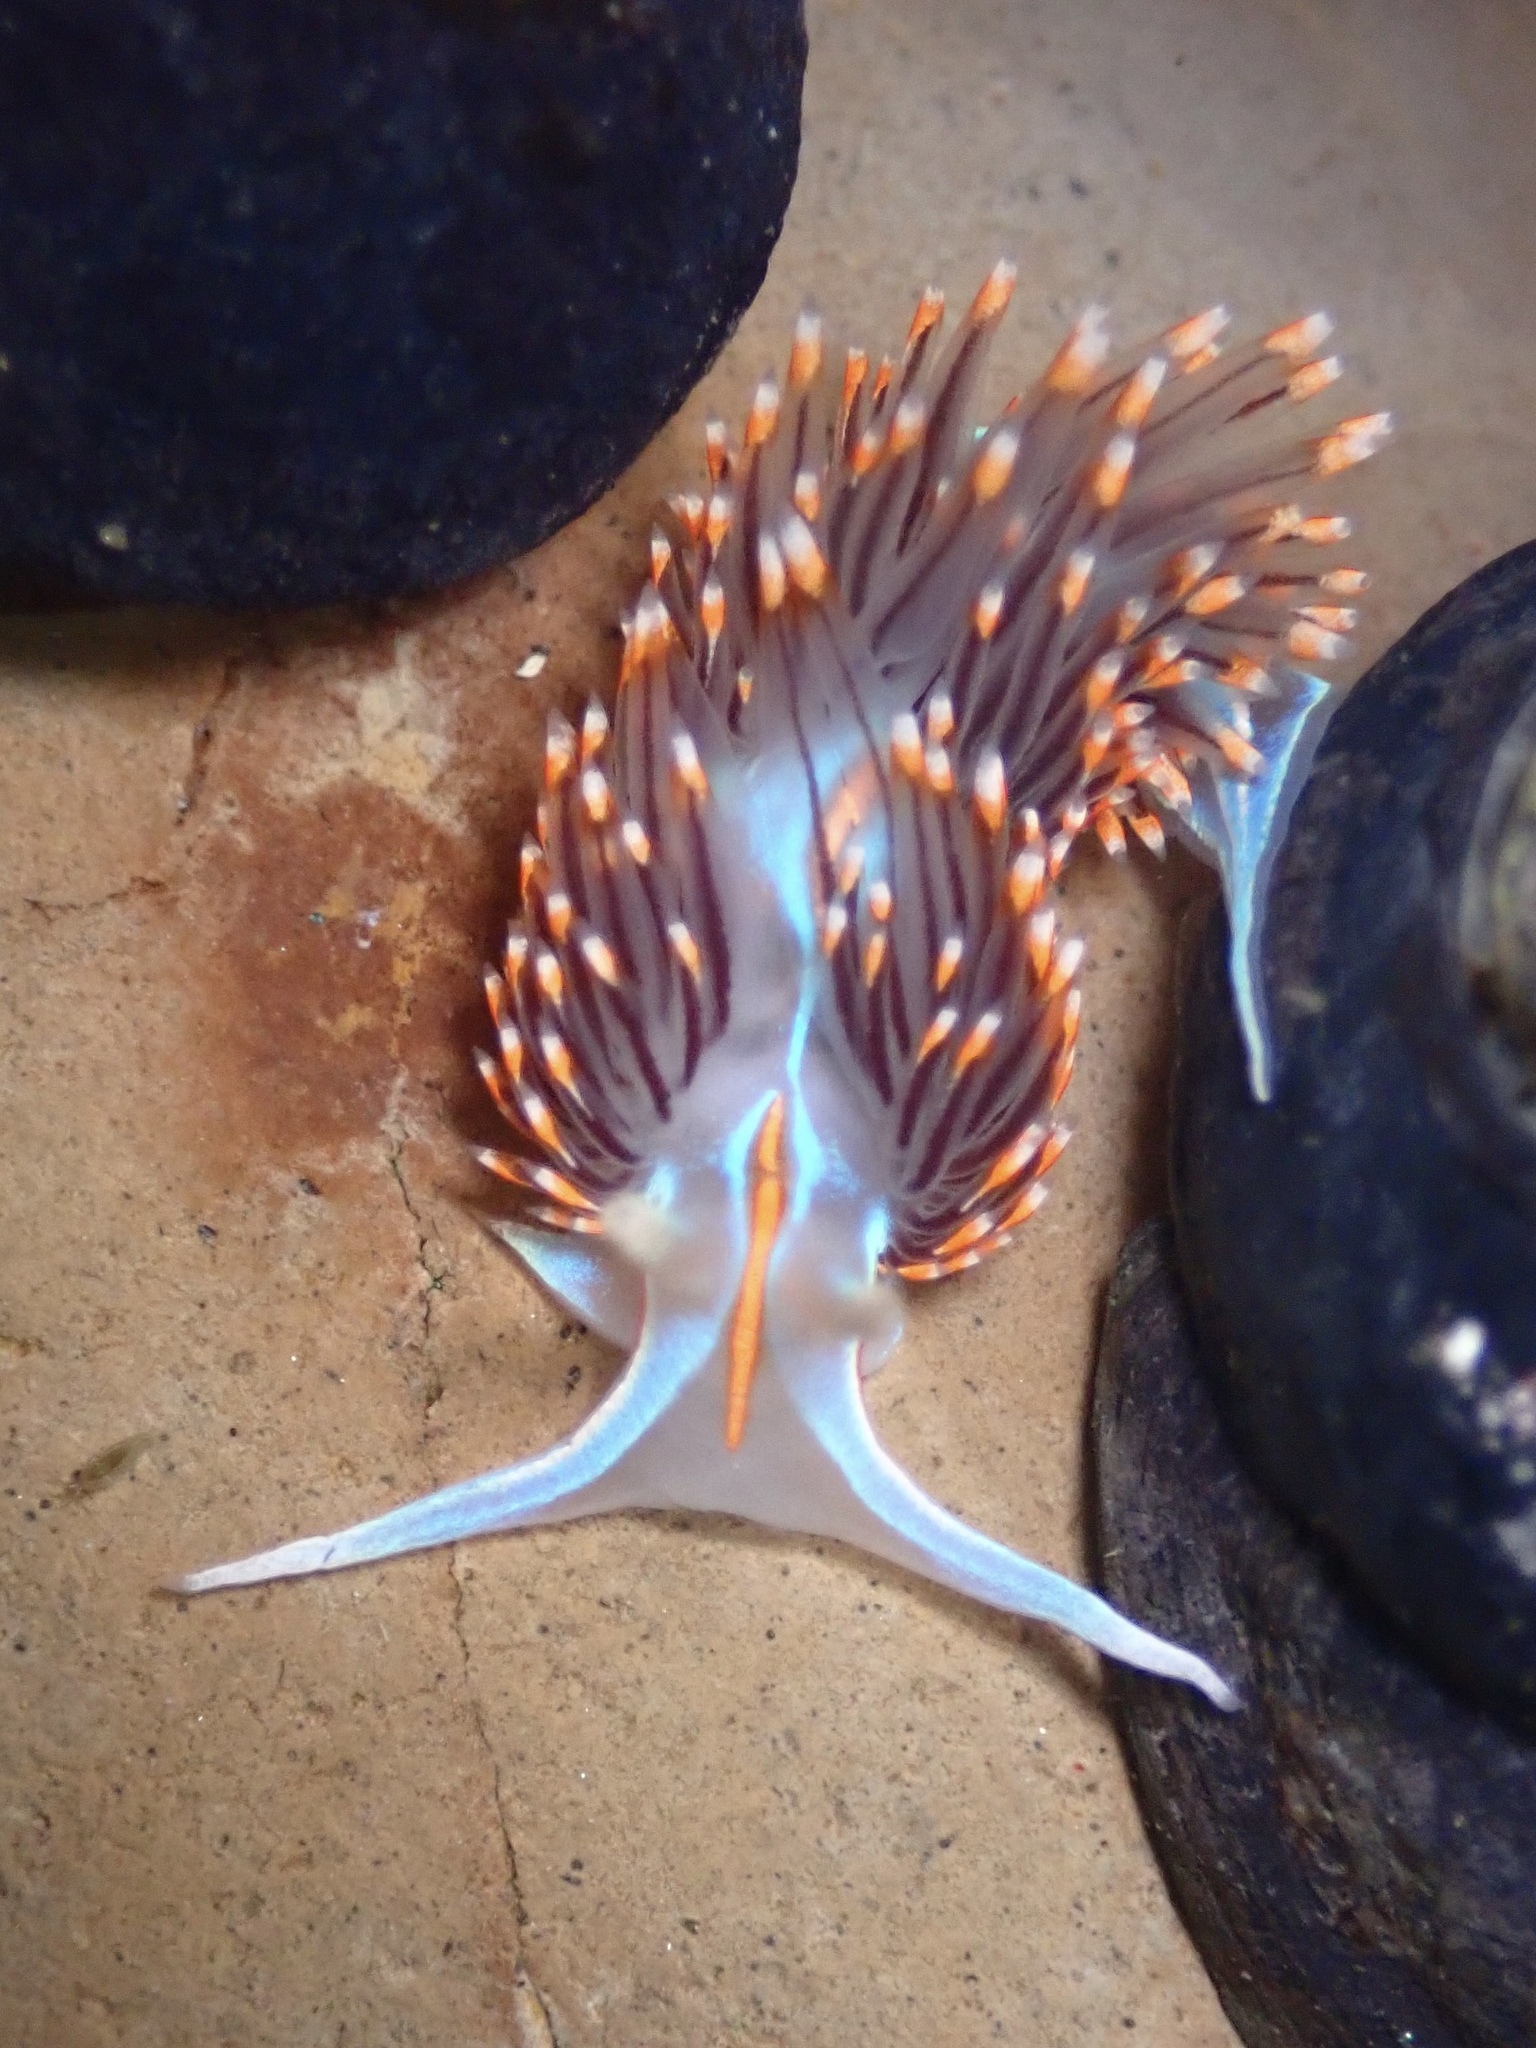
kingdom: Animalia
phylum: Mollusca
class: Gastropoda
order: Nudibranchia
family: Myrrhinidae
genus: Hermissenda
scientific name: Hermissenda opalescens
